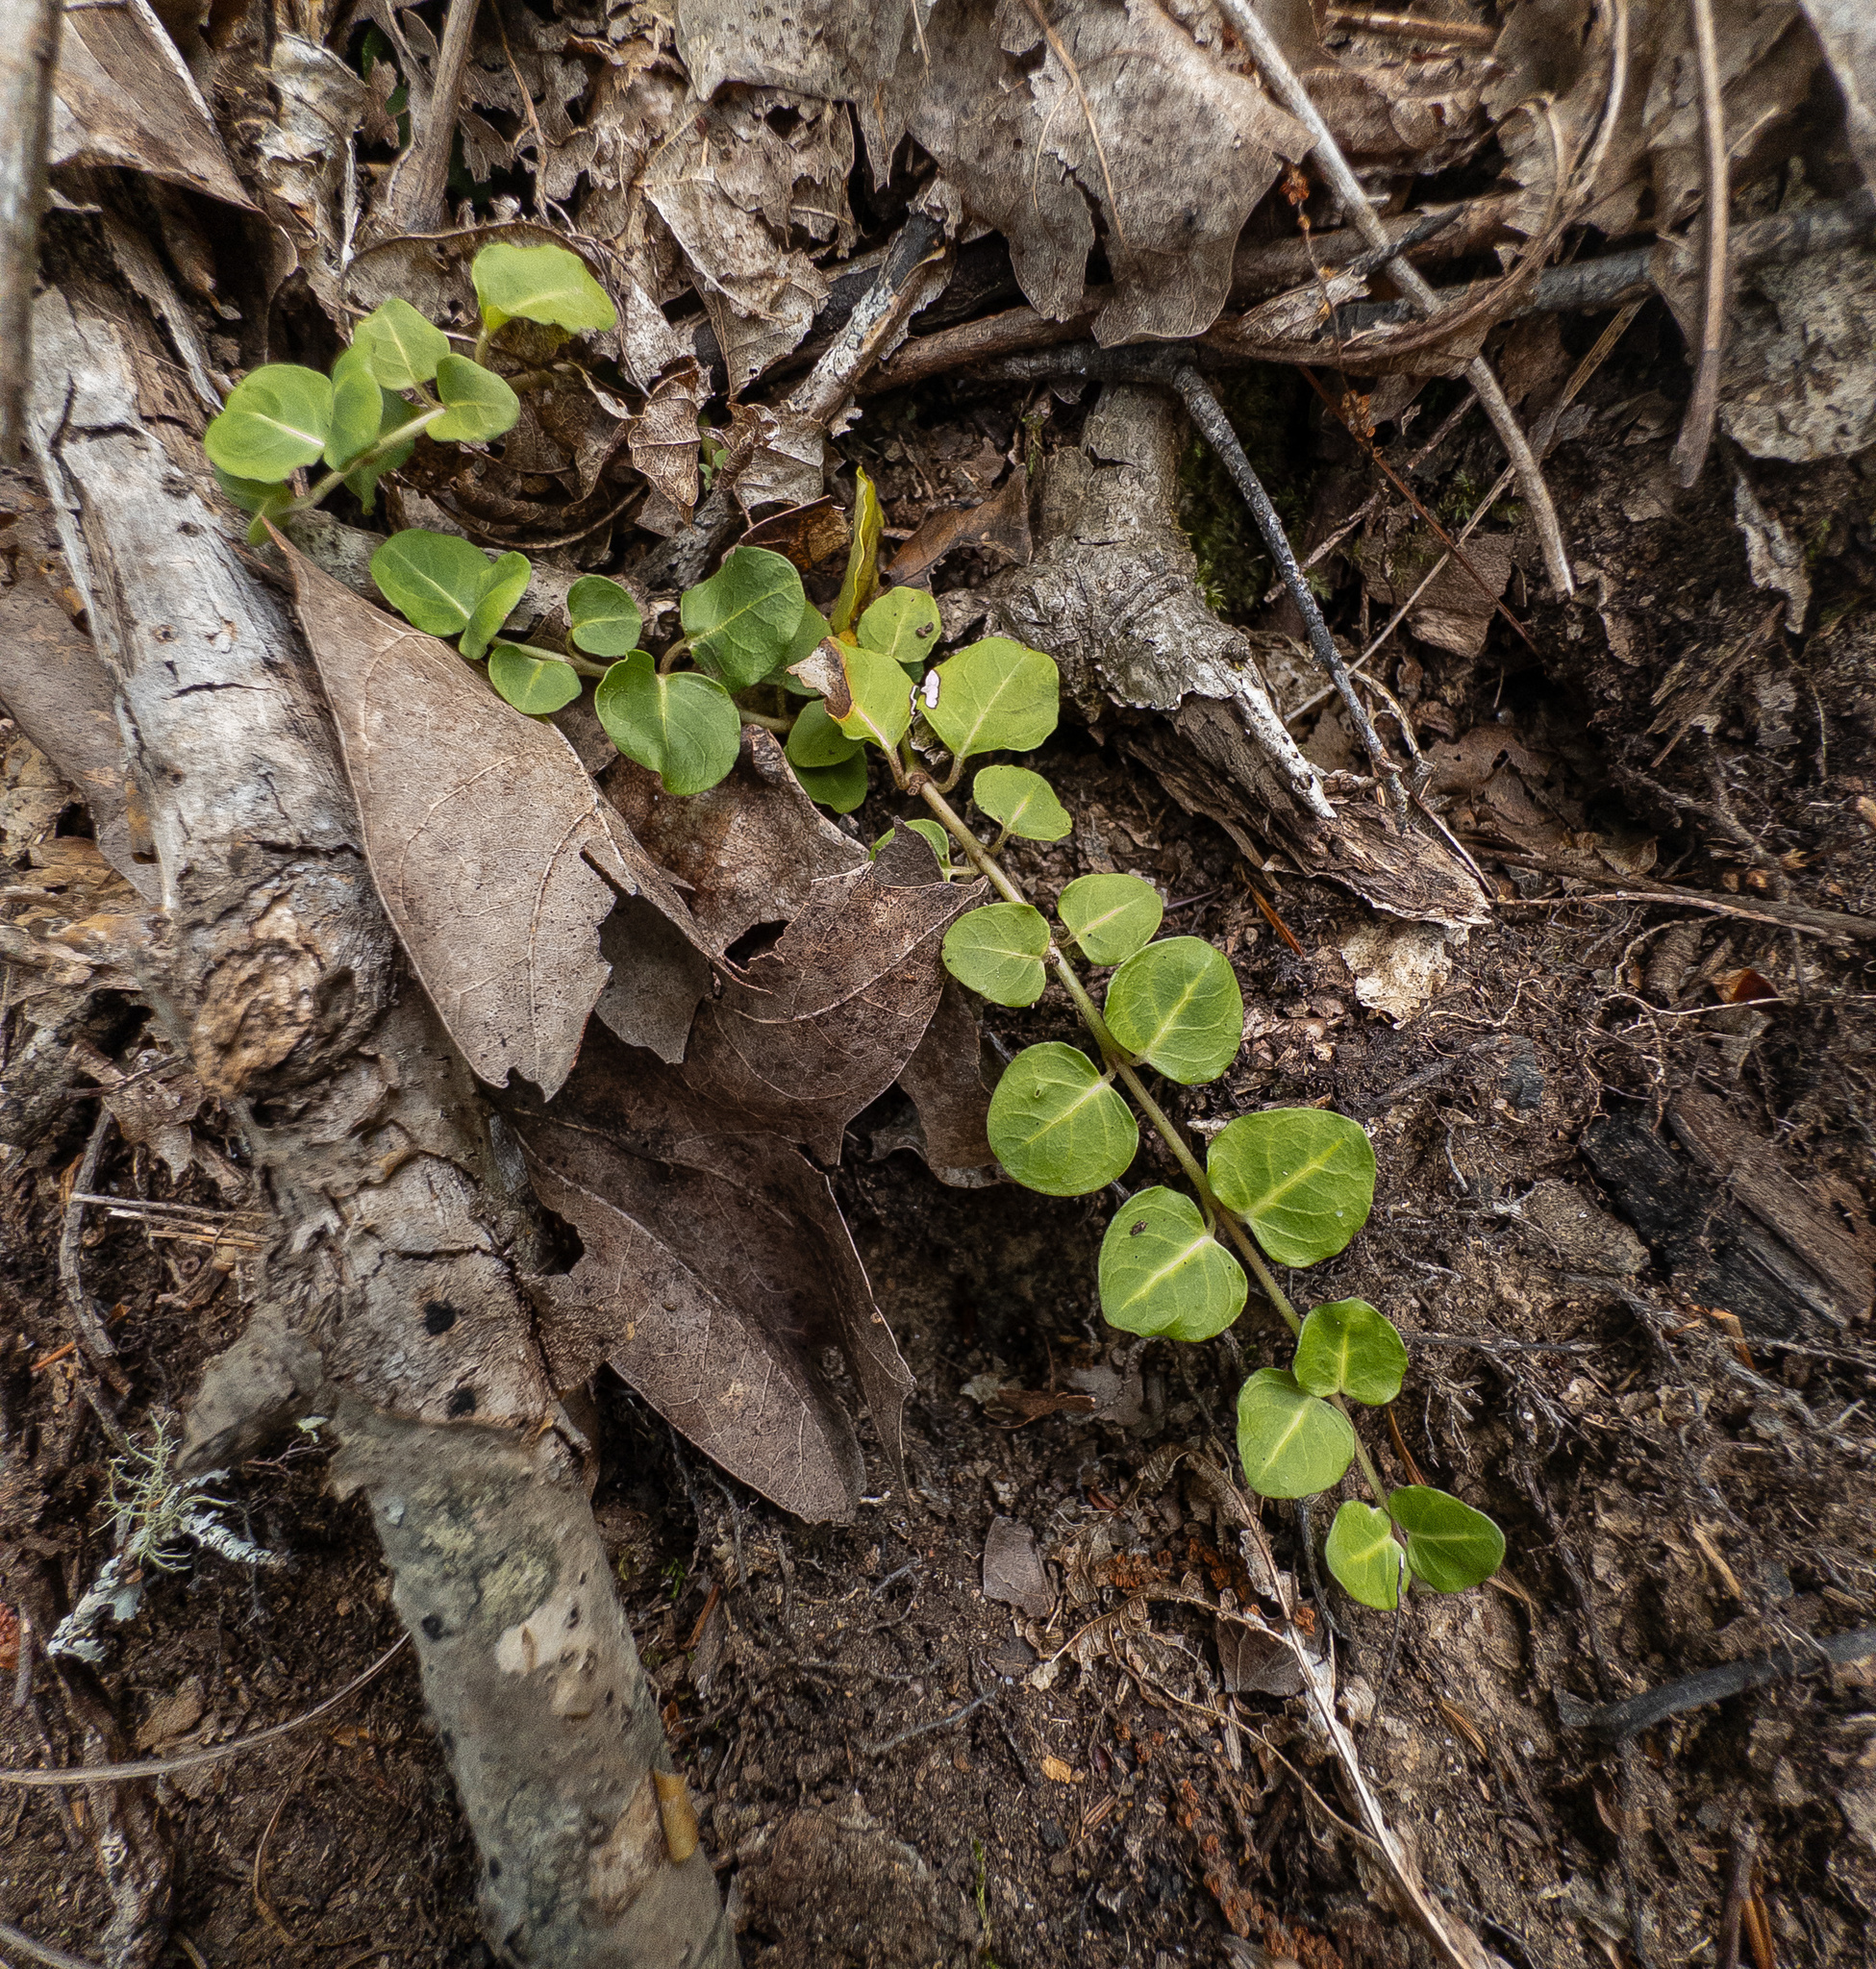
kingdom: Plantae
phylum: Tracheophyta
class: Magnoliopsida
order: Gentianales
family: Rubiaceae
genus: Mitchella
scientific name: Mitchella repens
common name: Partridge-berry
